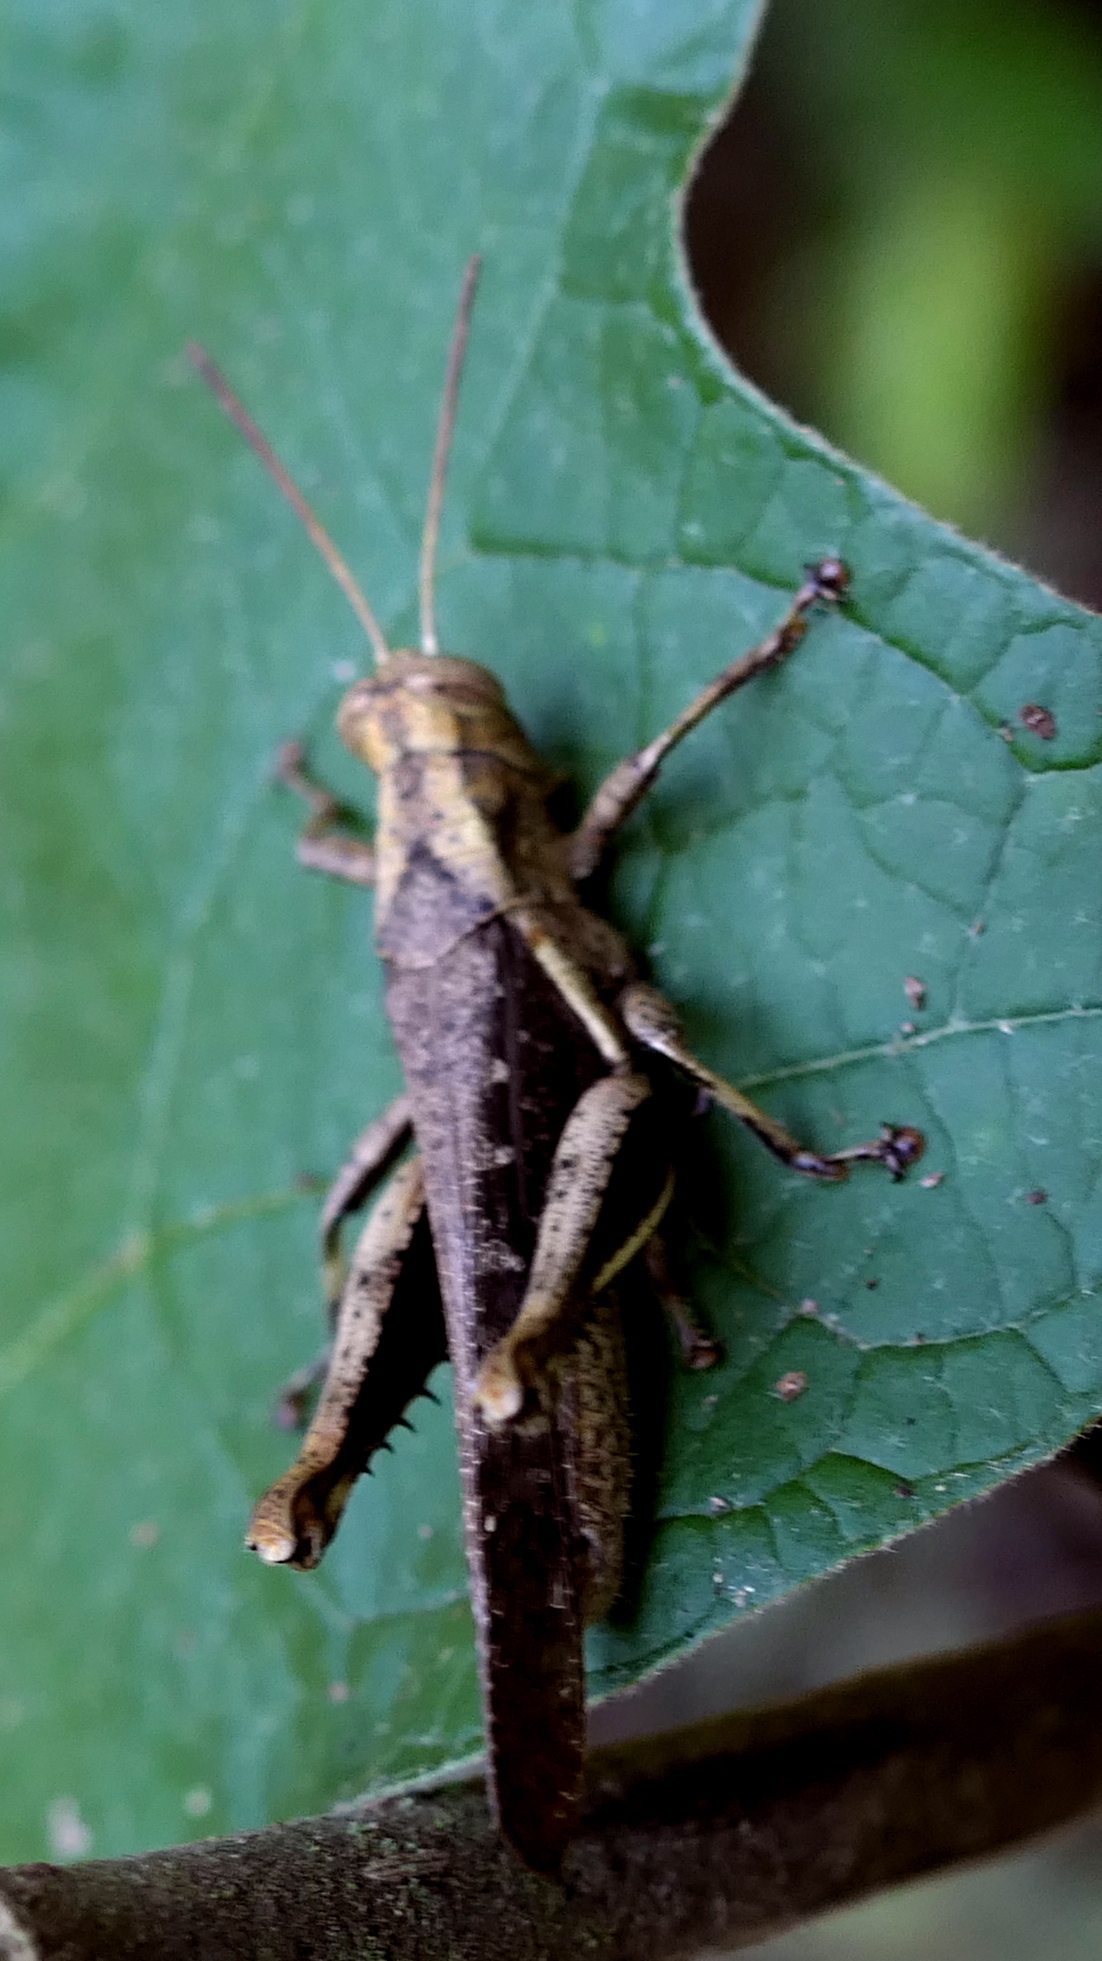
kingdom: Animalia
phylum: Arthropoda
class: Insecta
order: Orthoptera
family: Acrididae
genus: Abracris
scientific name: Abracris flavolineata
